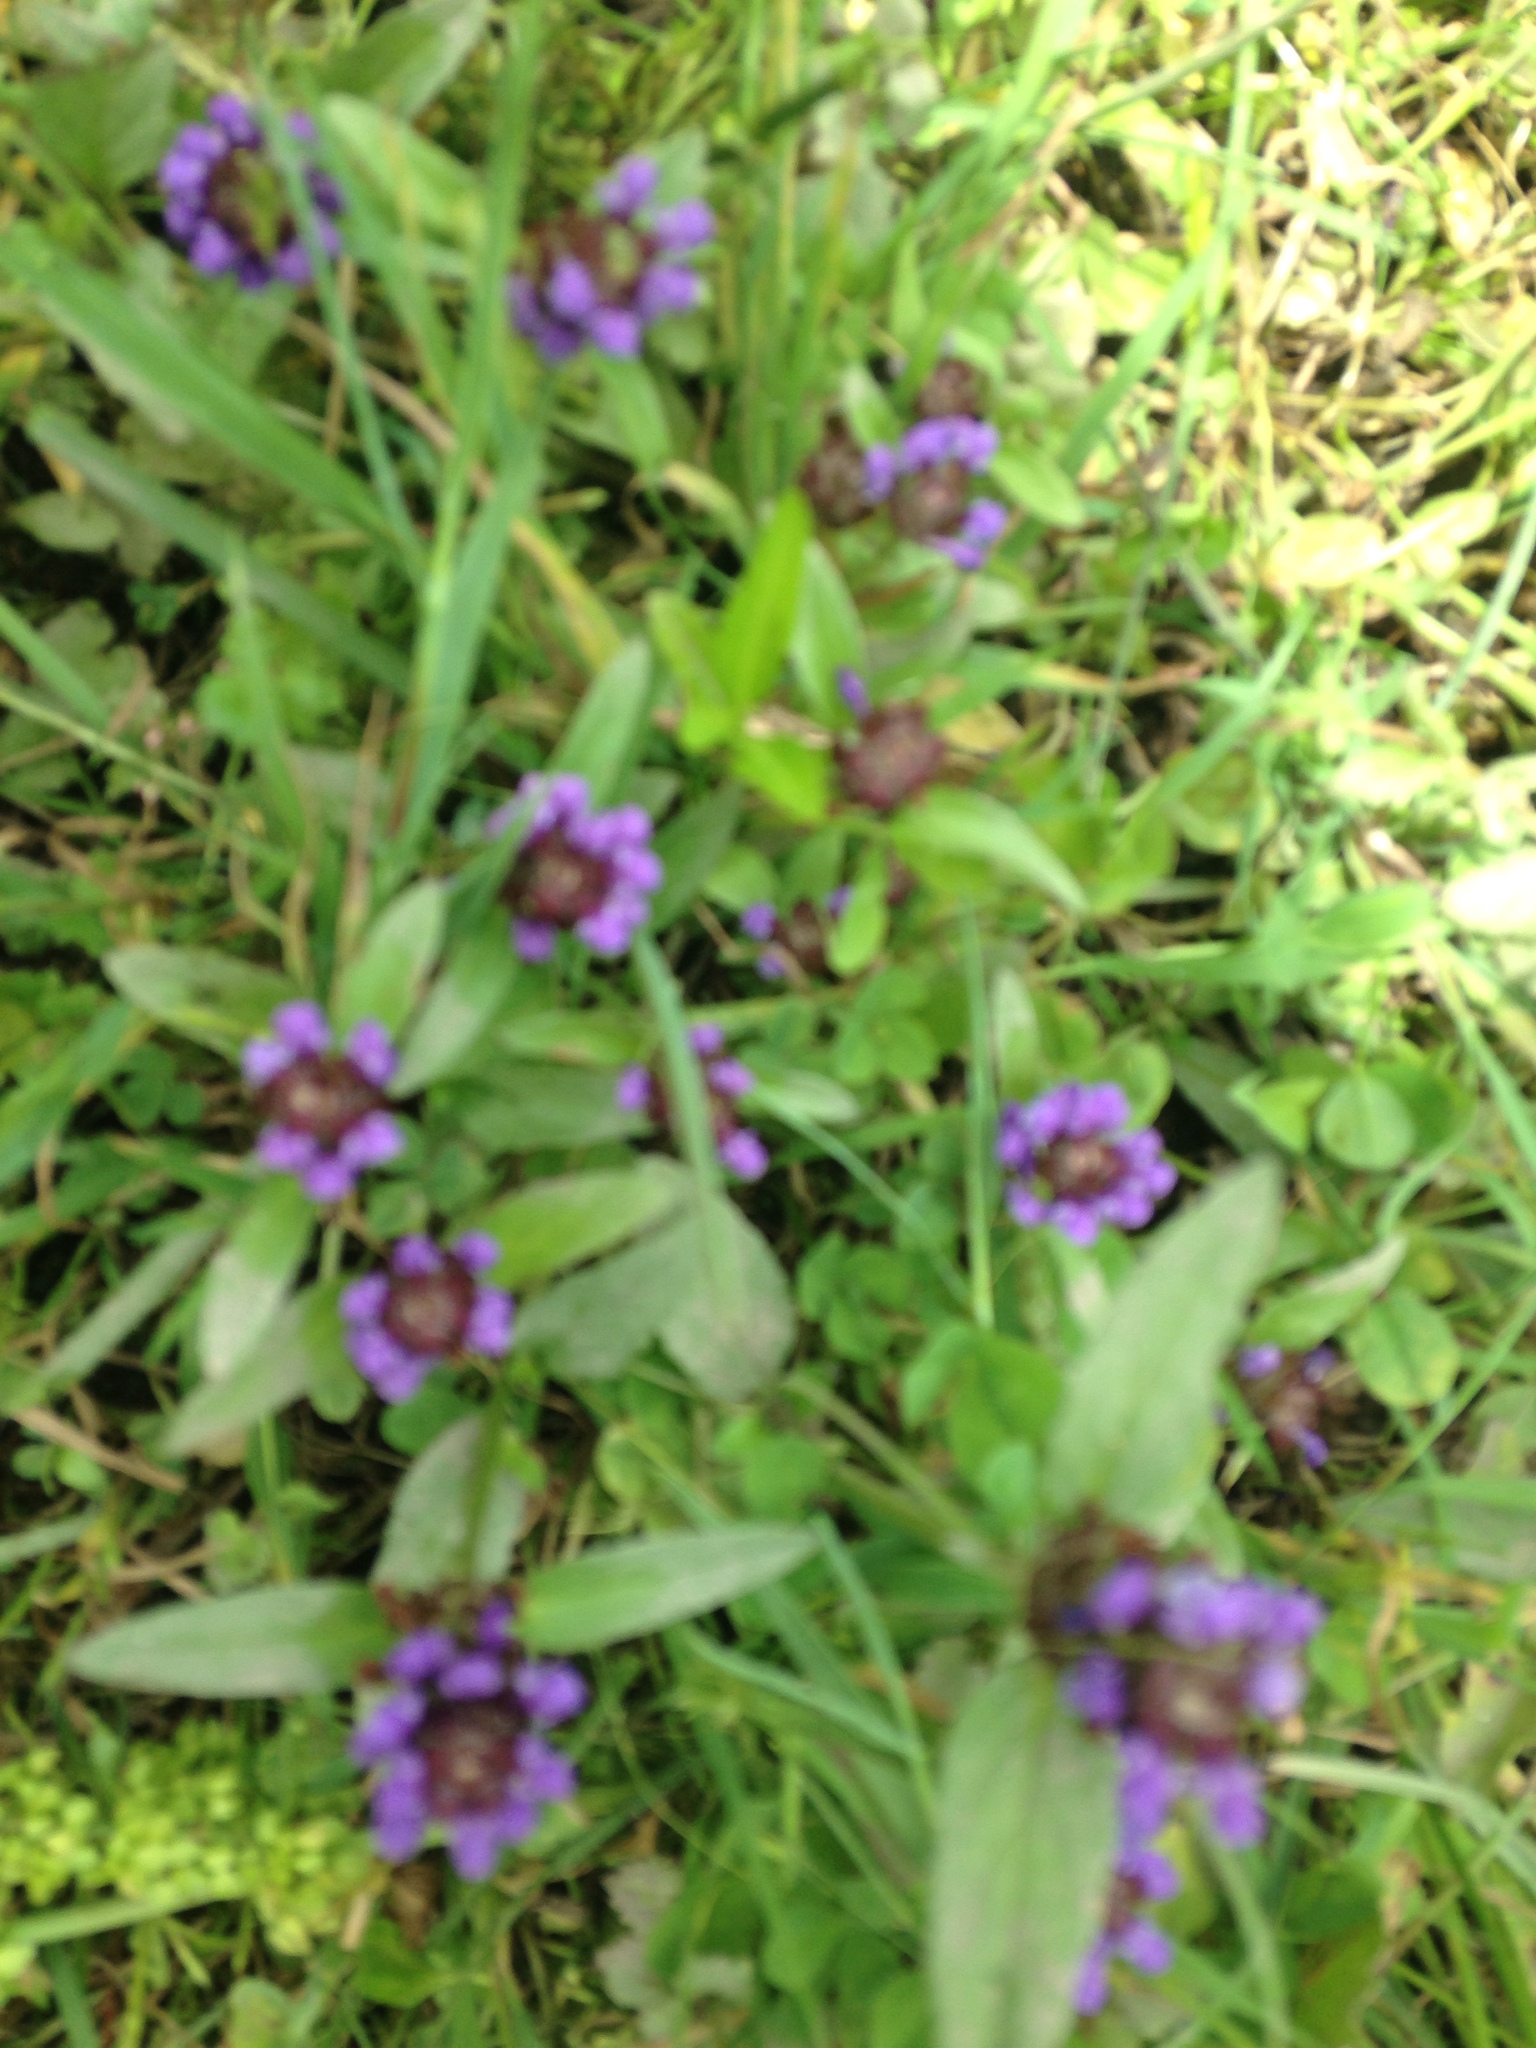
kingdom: Plantae
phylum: Tracheophyta
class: Magnoliopsida
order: Lamiales
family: Lamiaceae
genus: Prunella
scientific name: Prunella vulgaris
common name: Heal-all
